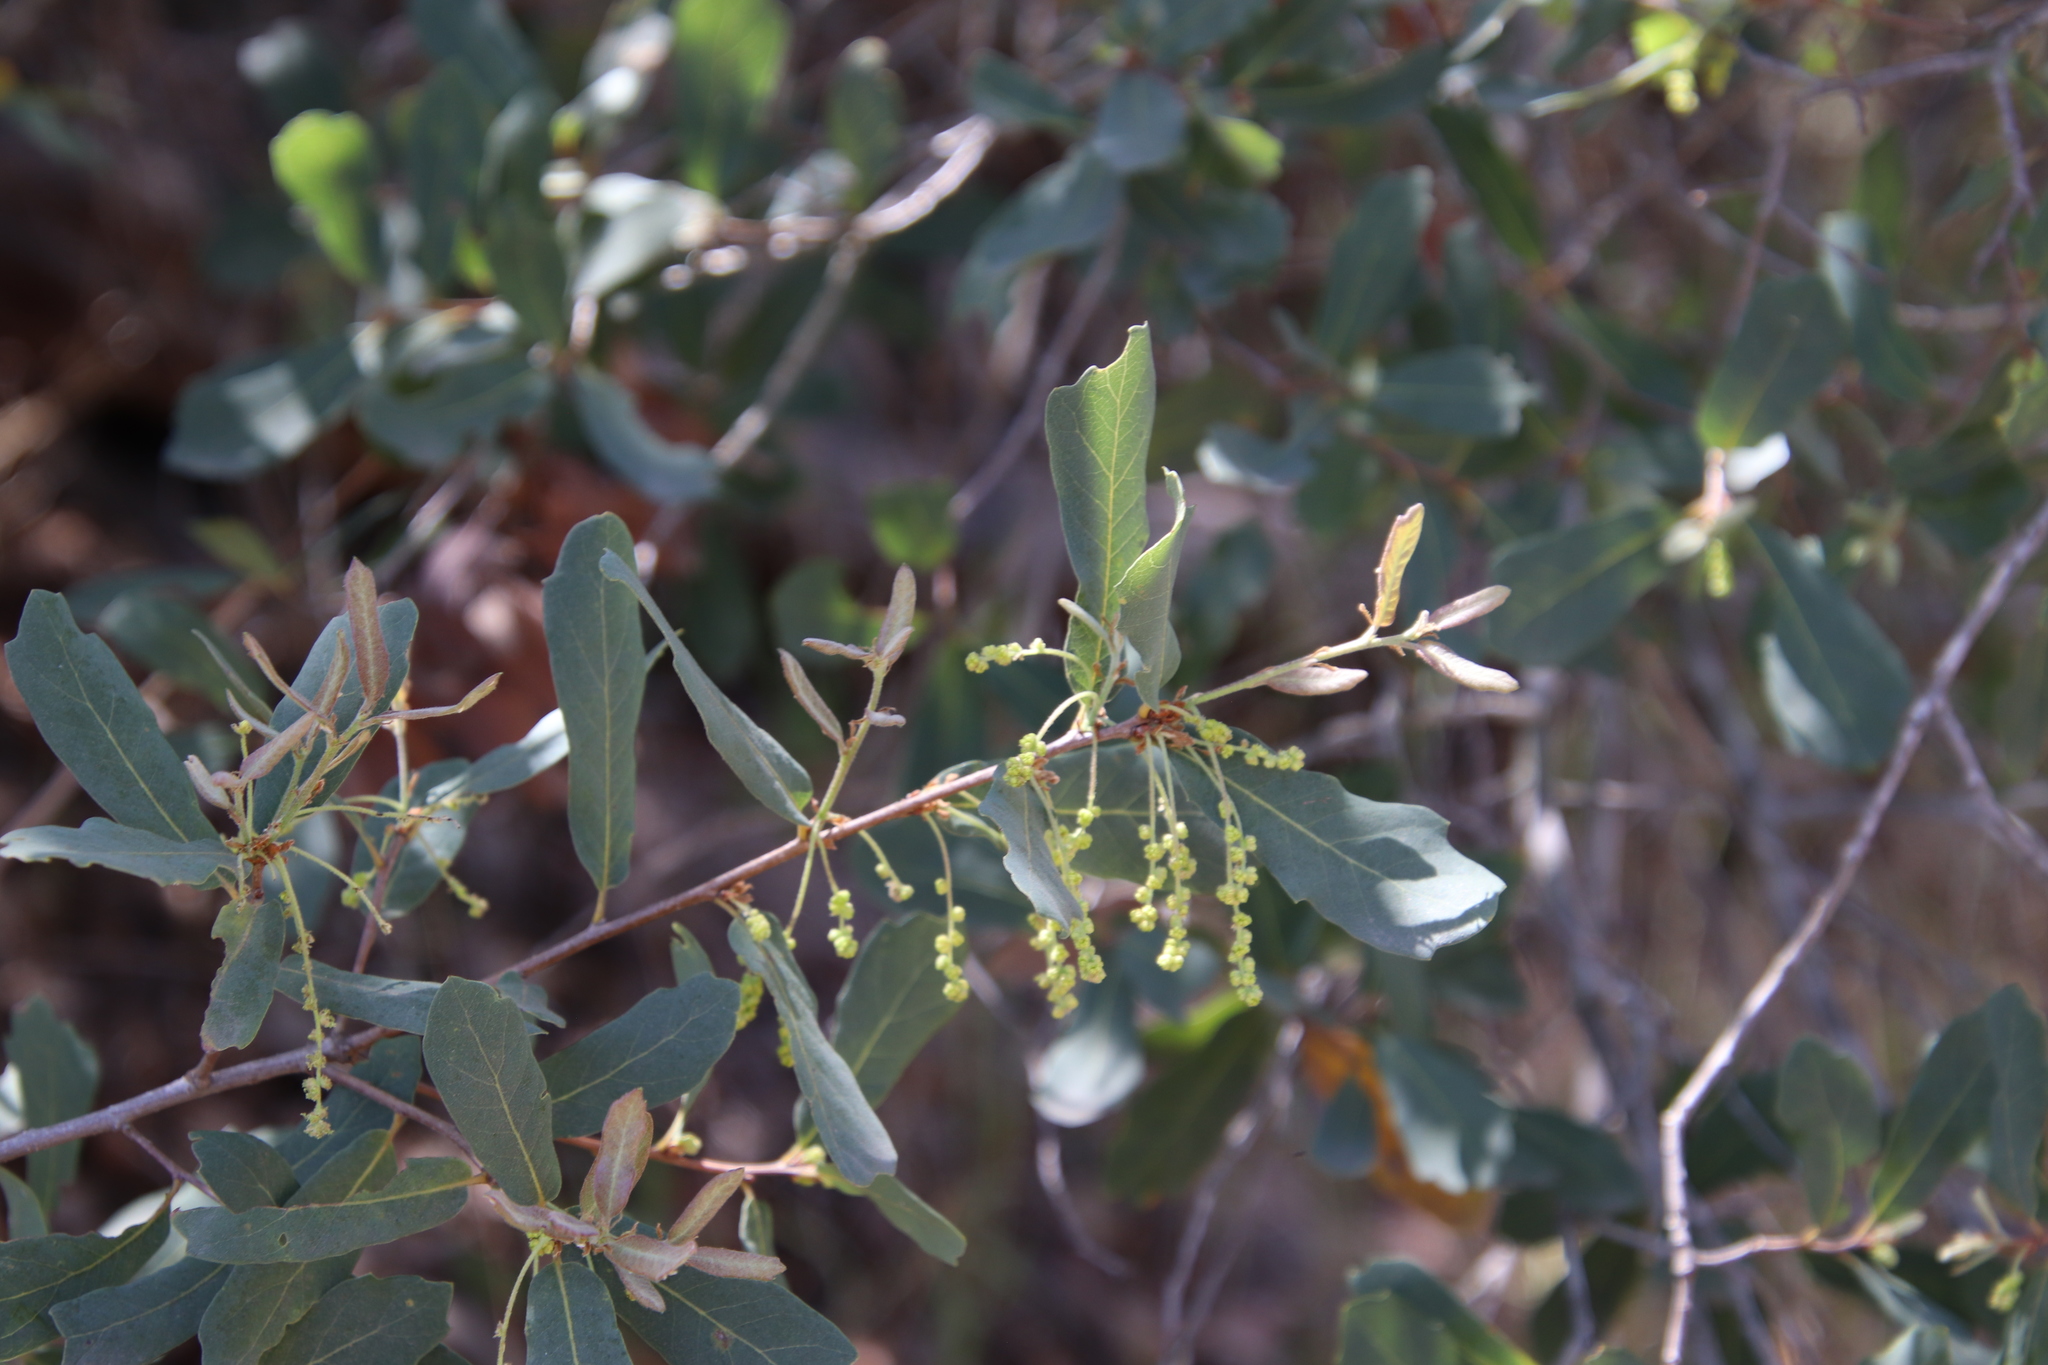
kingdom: Plantae
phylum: Tracheophyta
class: Magnoliopsida
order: Fagales
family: Fagaceae
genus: Quercus
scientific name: Quercus engelmannii
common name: Engelmann oak
